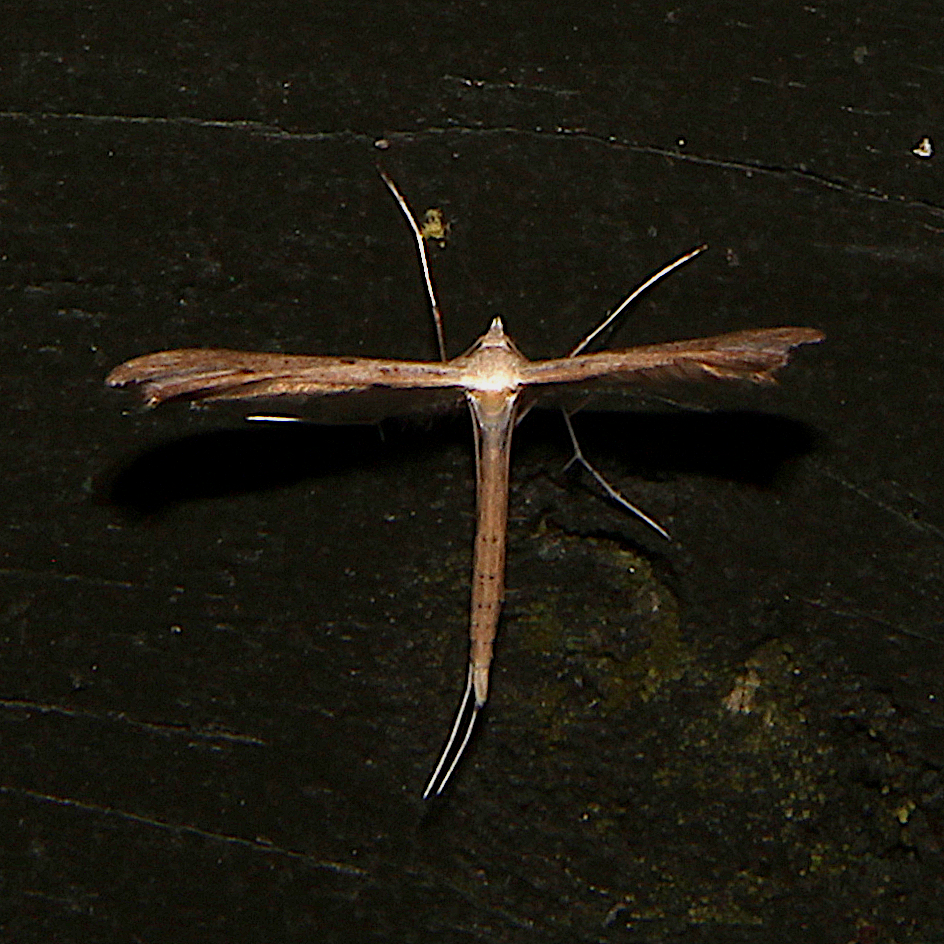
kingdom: Animalia
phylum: Arthropoda
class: Insecta
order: Lepidoptera
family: Pterophoridae
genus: Stenoptilia
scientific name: Stenoptilia zophodactylus
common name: Dowdy plume
